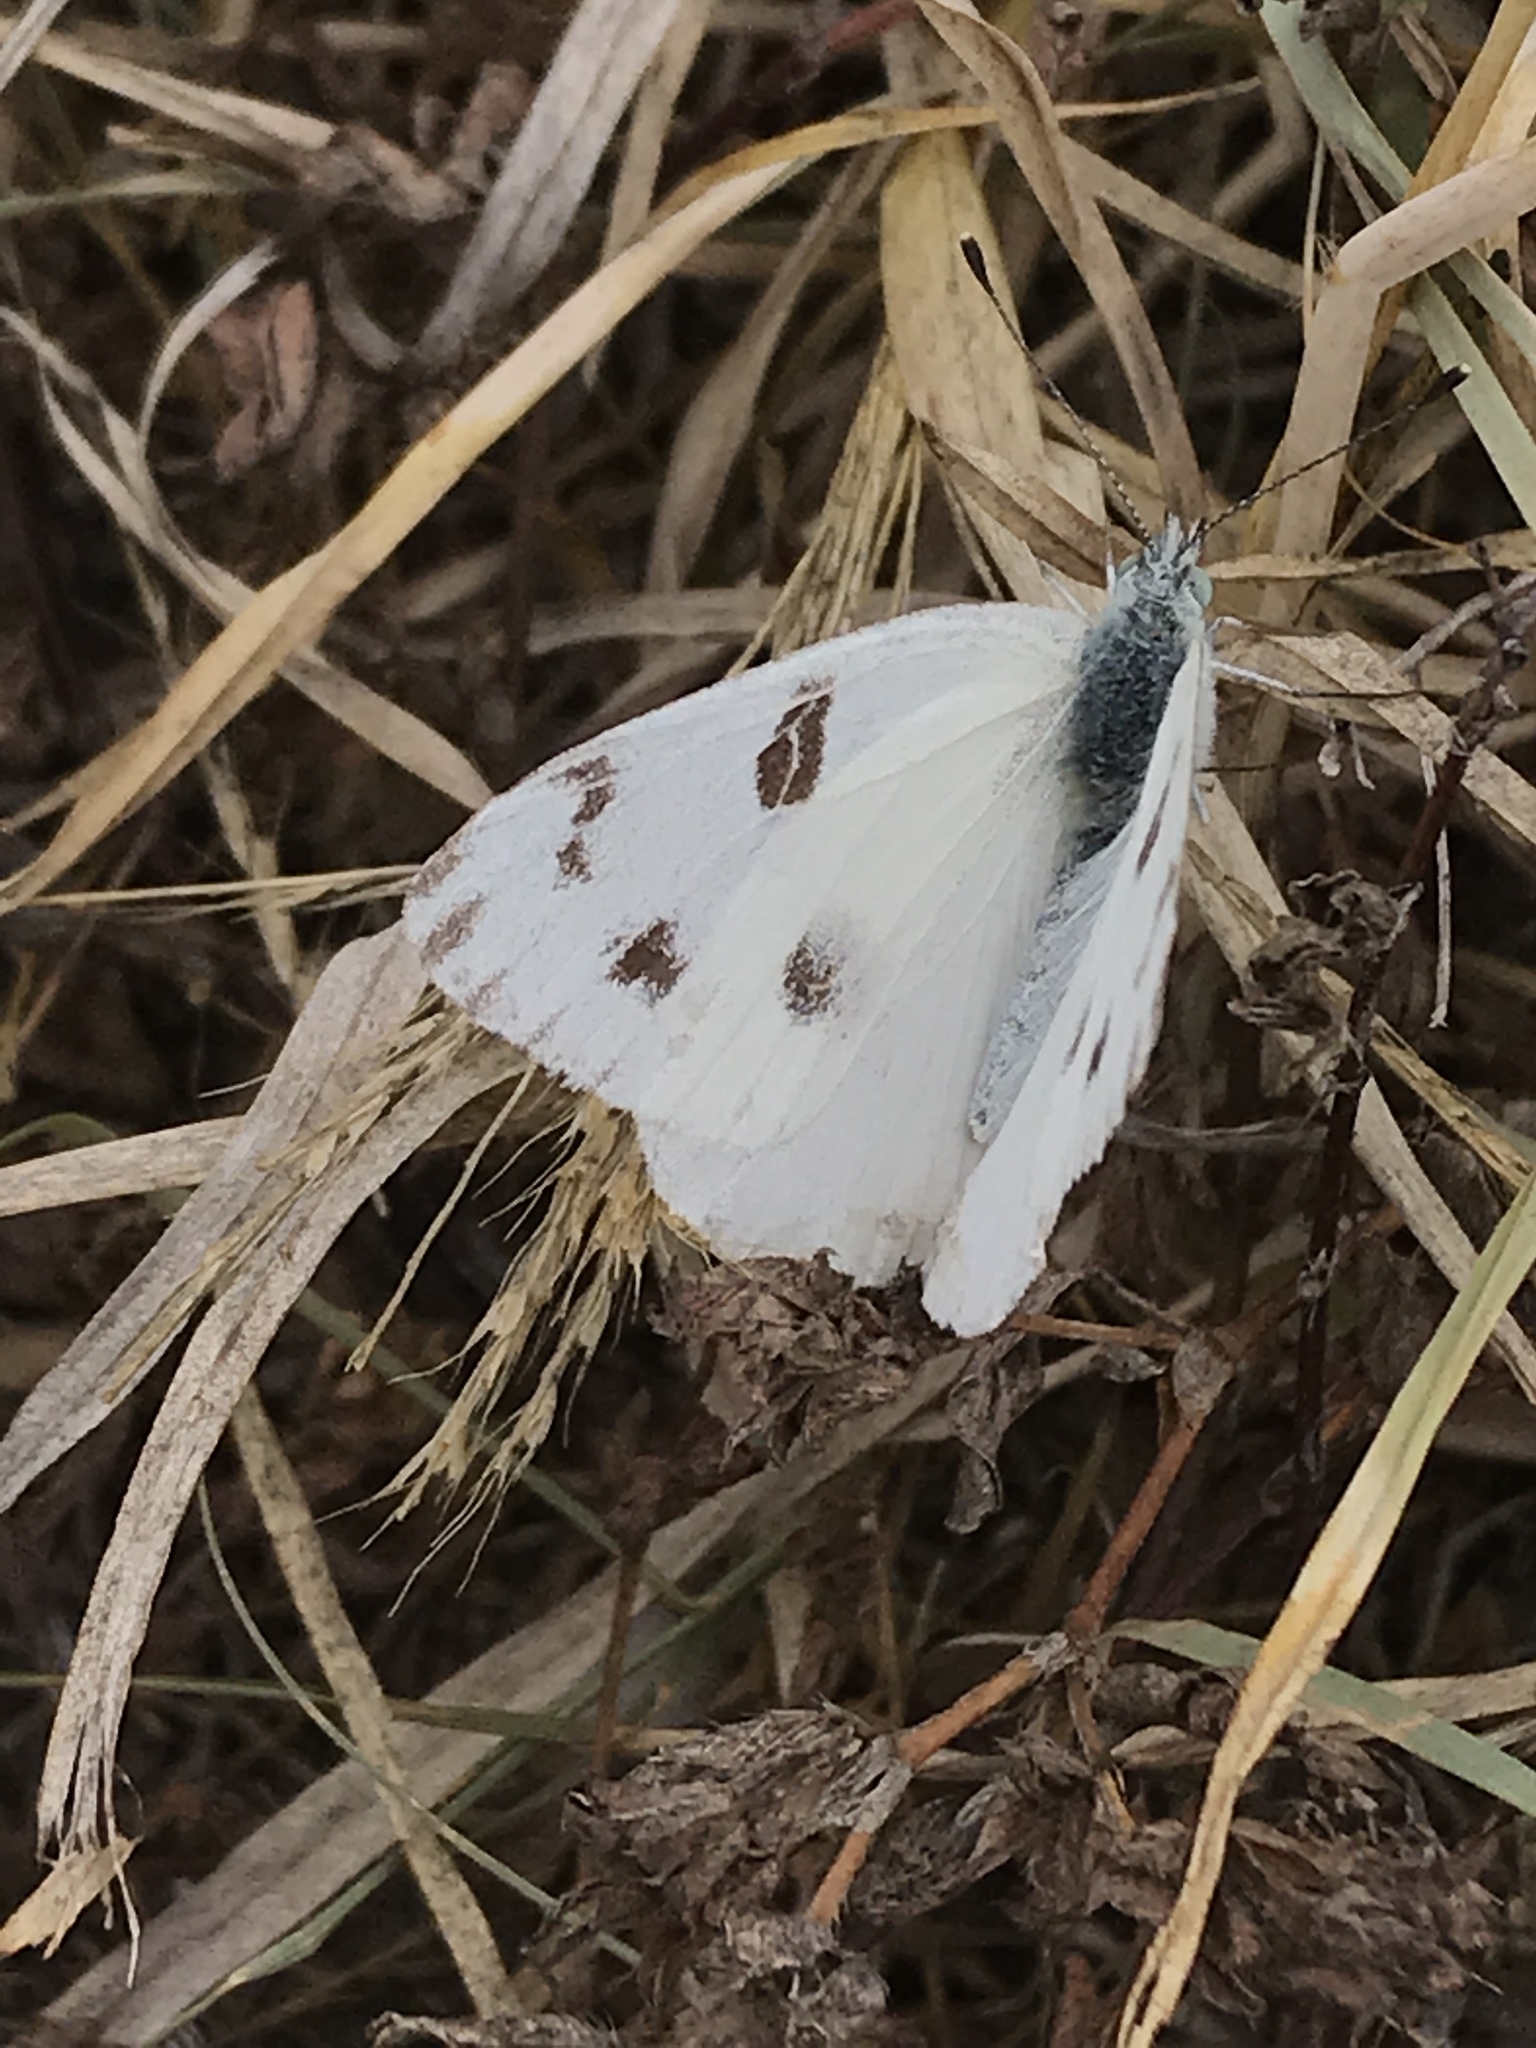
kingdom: Animalia
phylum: Arthropoda
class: Insecta
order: Lepidoptera
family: Pieridae
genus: Pontia
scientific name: Pontia protodice
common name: Checkered white
